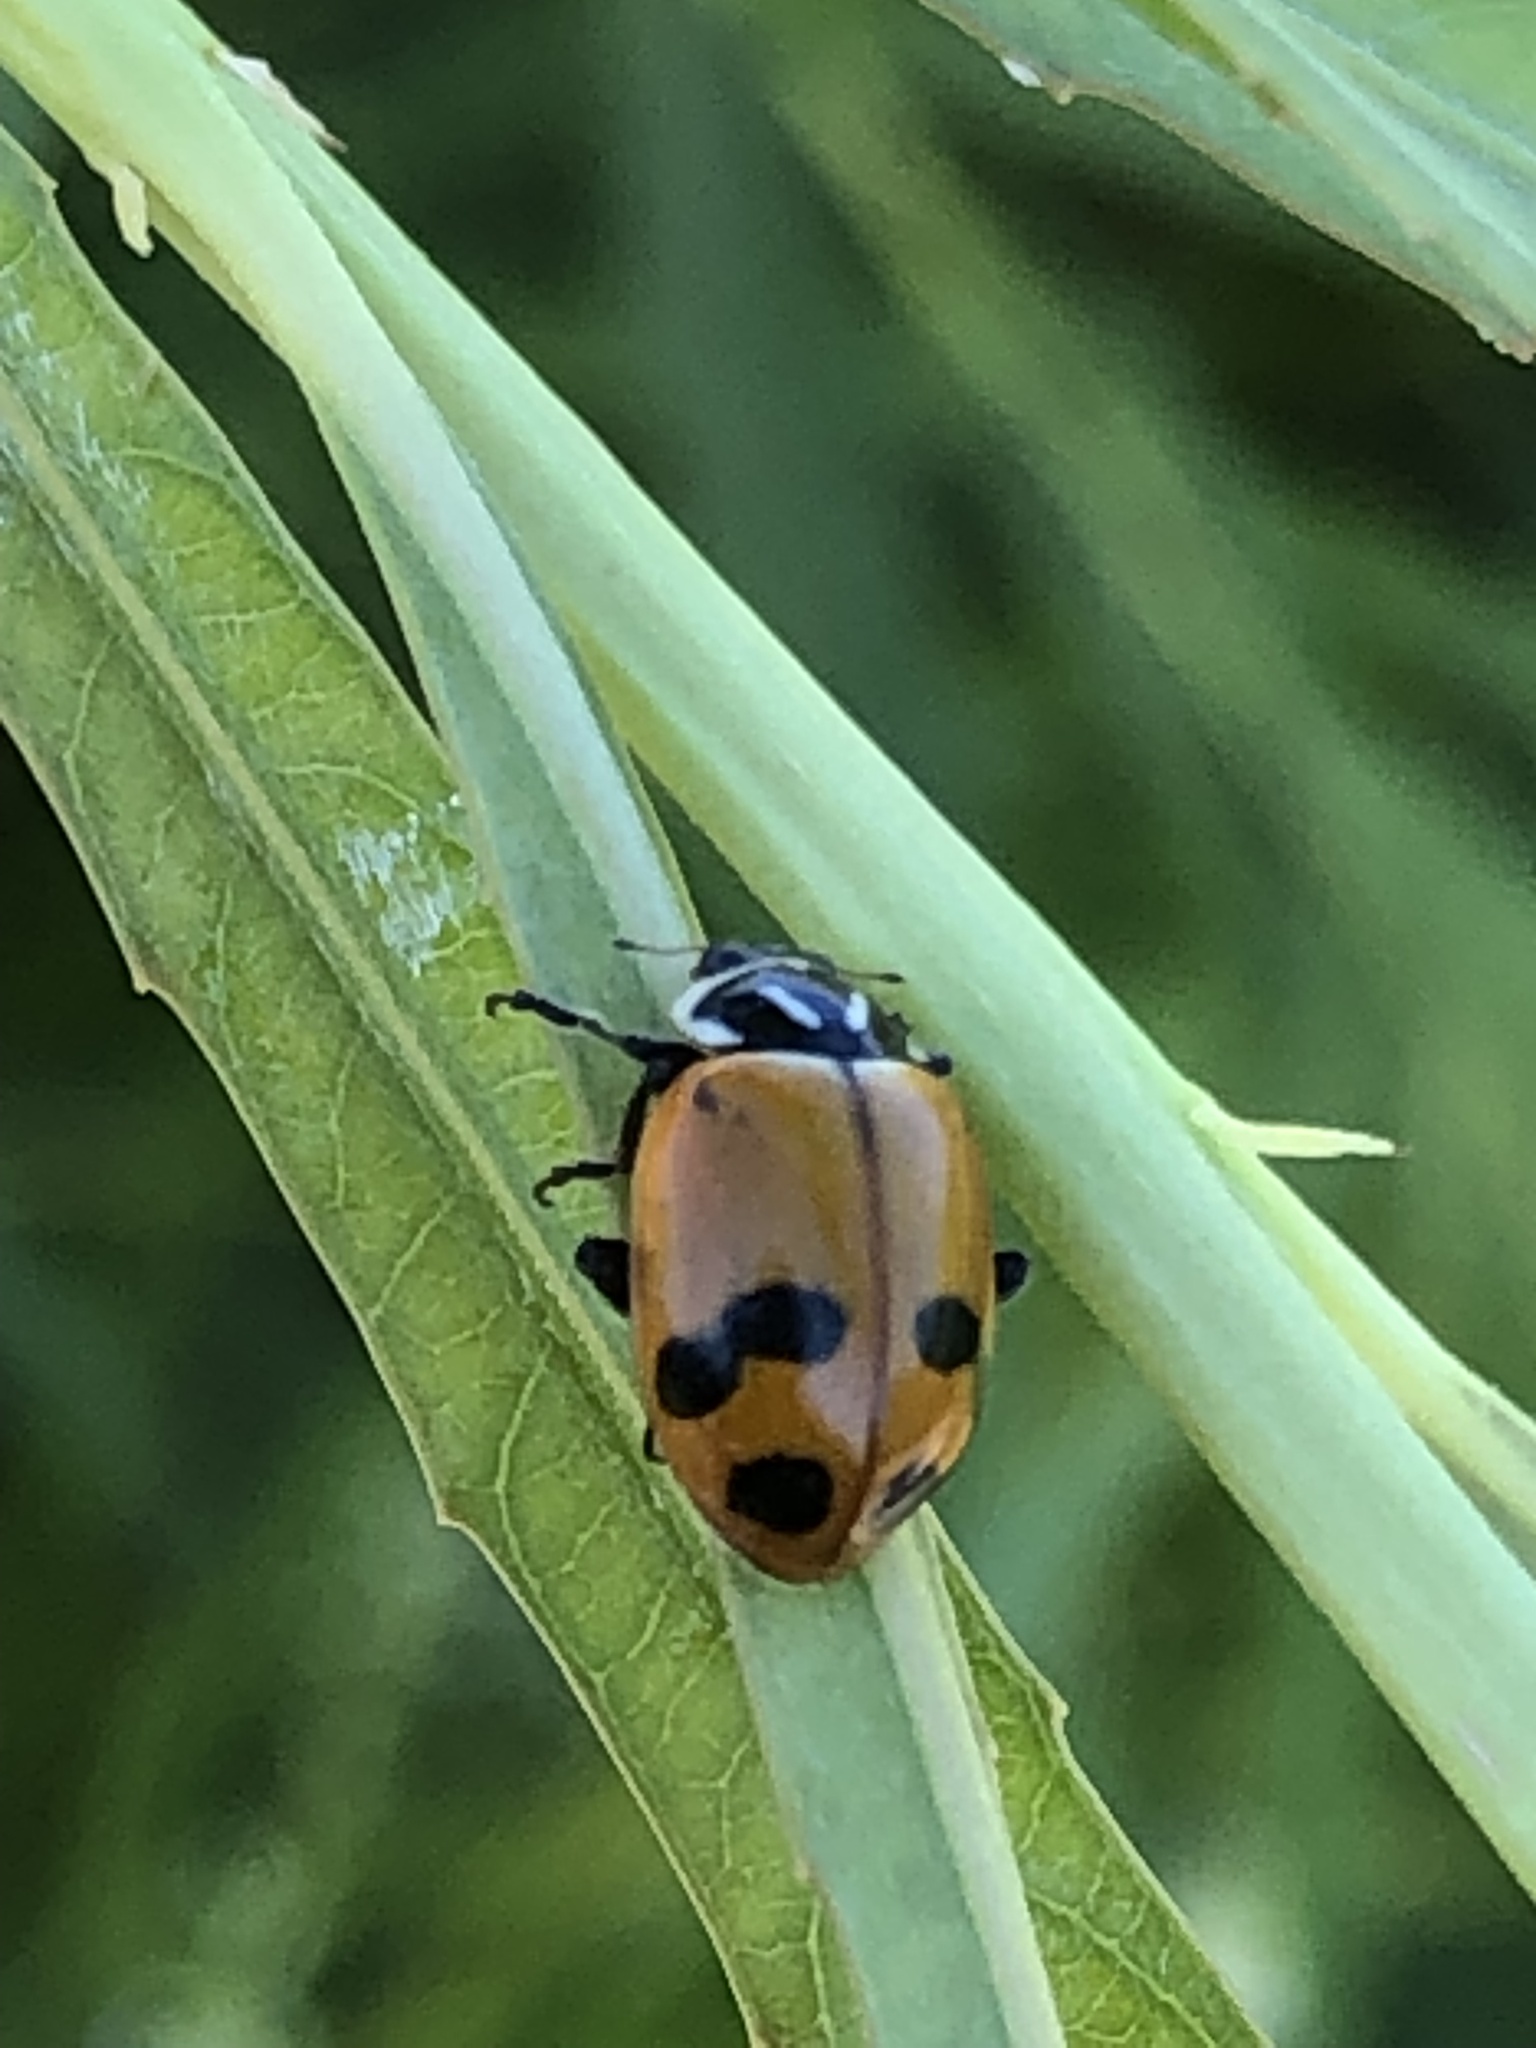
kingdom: Animalia
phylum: Arthropoda
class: Insecta
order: Coleoptera
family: Coccinellidae
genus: Hippodamia
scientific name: Hippodamia glacialis
